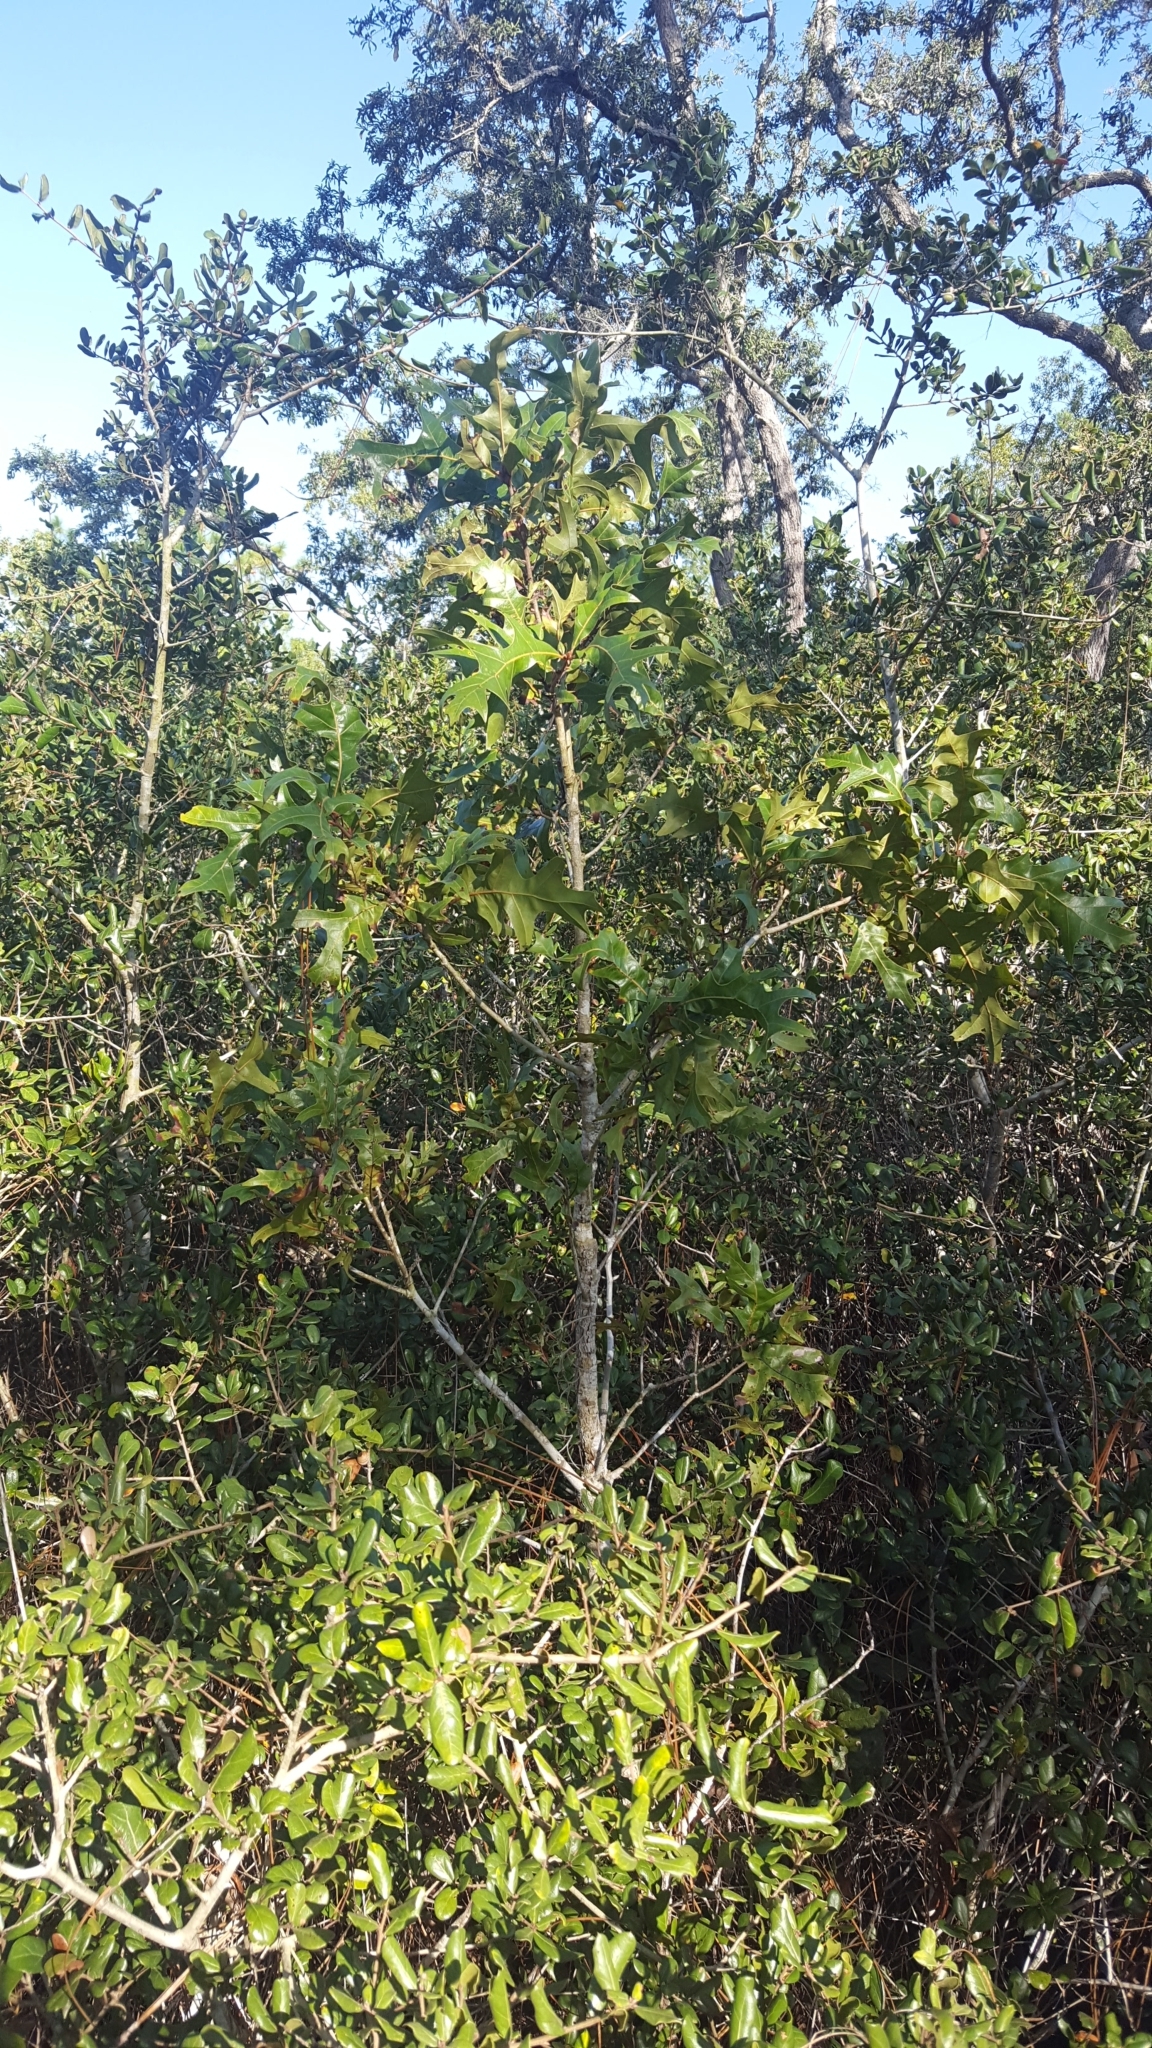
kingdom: Plantae
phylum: Tracheophyta
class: Magnoliopsida
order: Fagales
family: Fagaceae
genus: Quercus
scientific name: Quercus laevis
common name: Turkey oak
